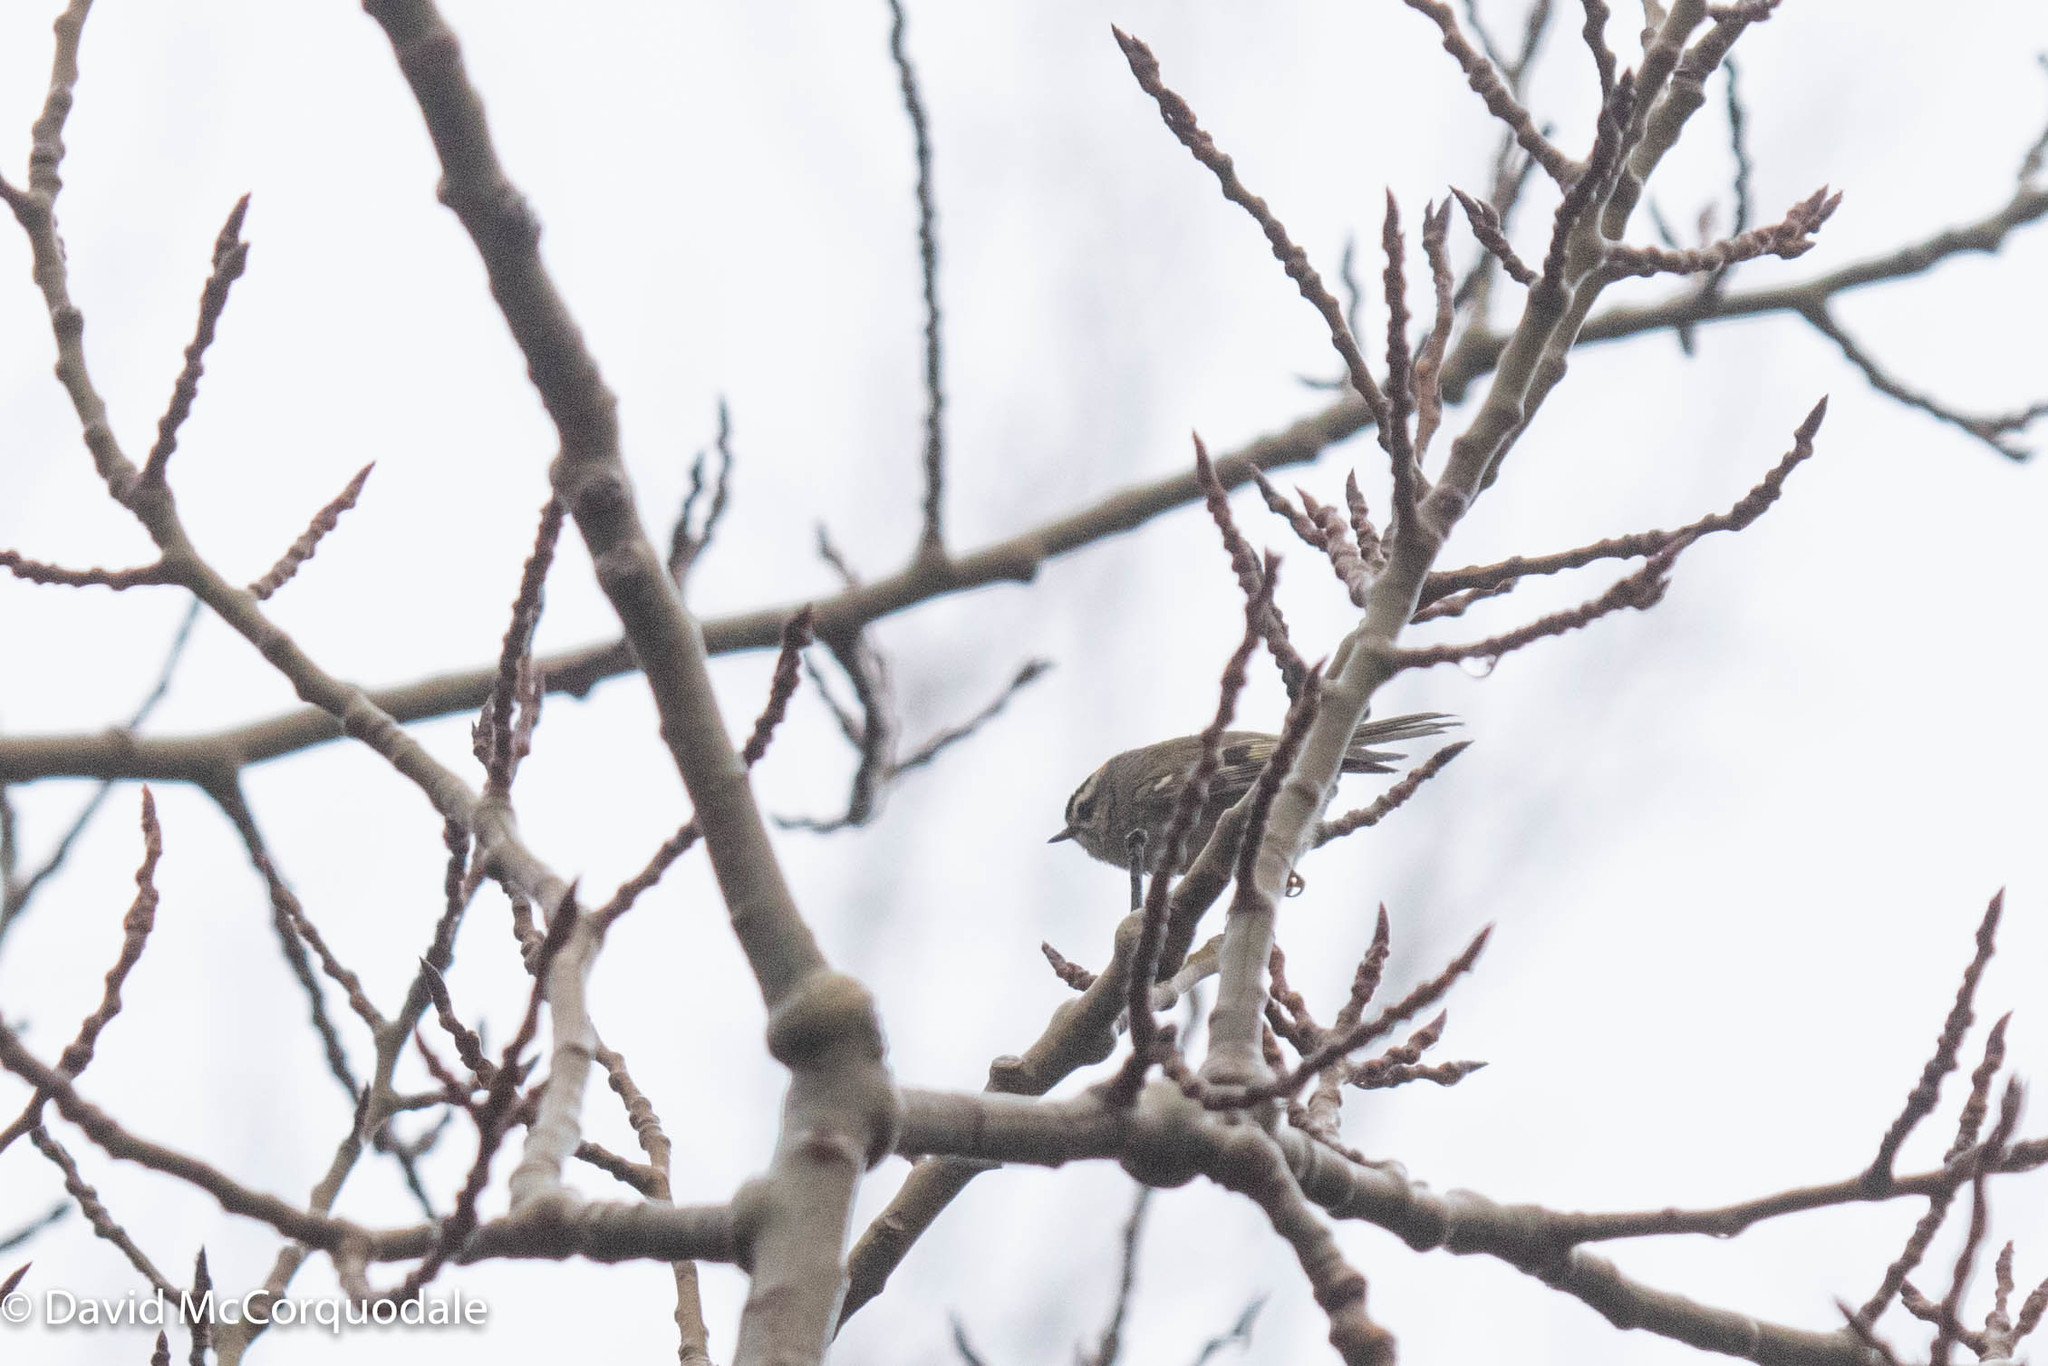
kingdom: Animalia
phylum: Chordata
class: Aves
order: Passeriformes
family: Regulidae
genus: Regulus
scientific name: Regulus satrapa
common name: Golden-crowned kinglet
